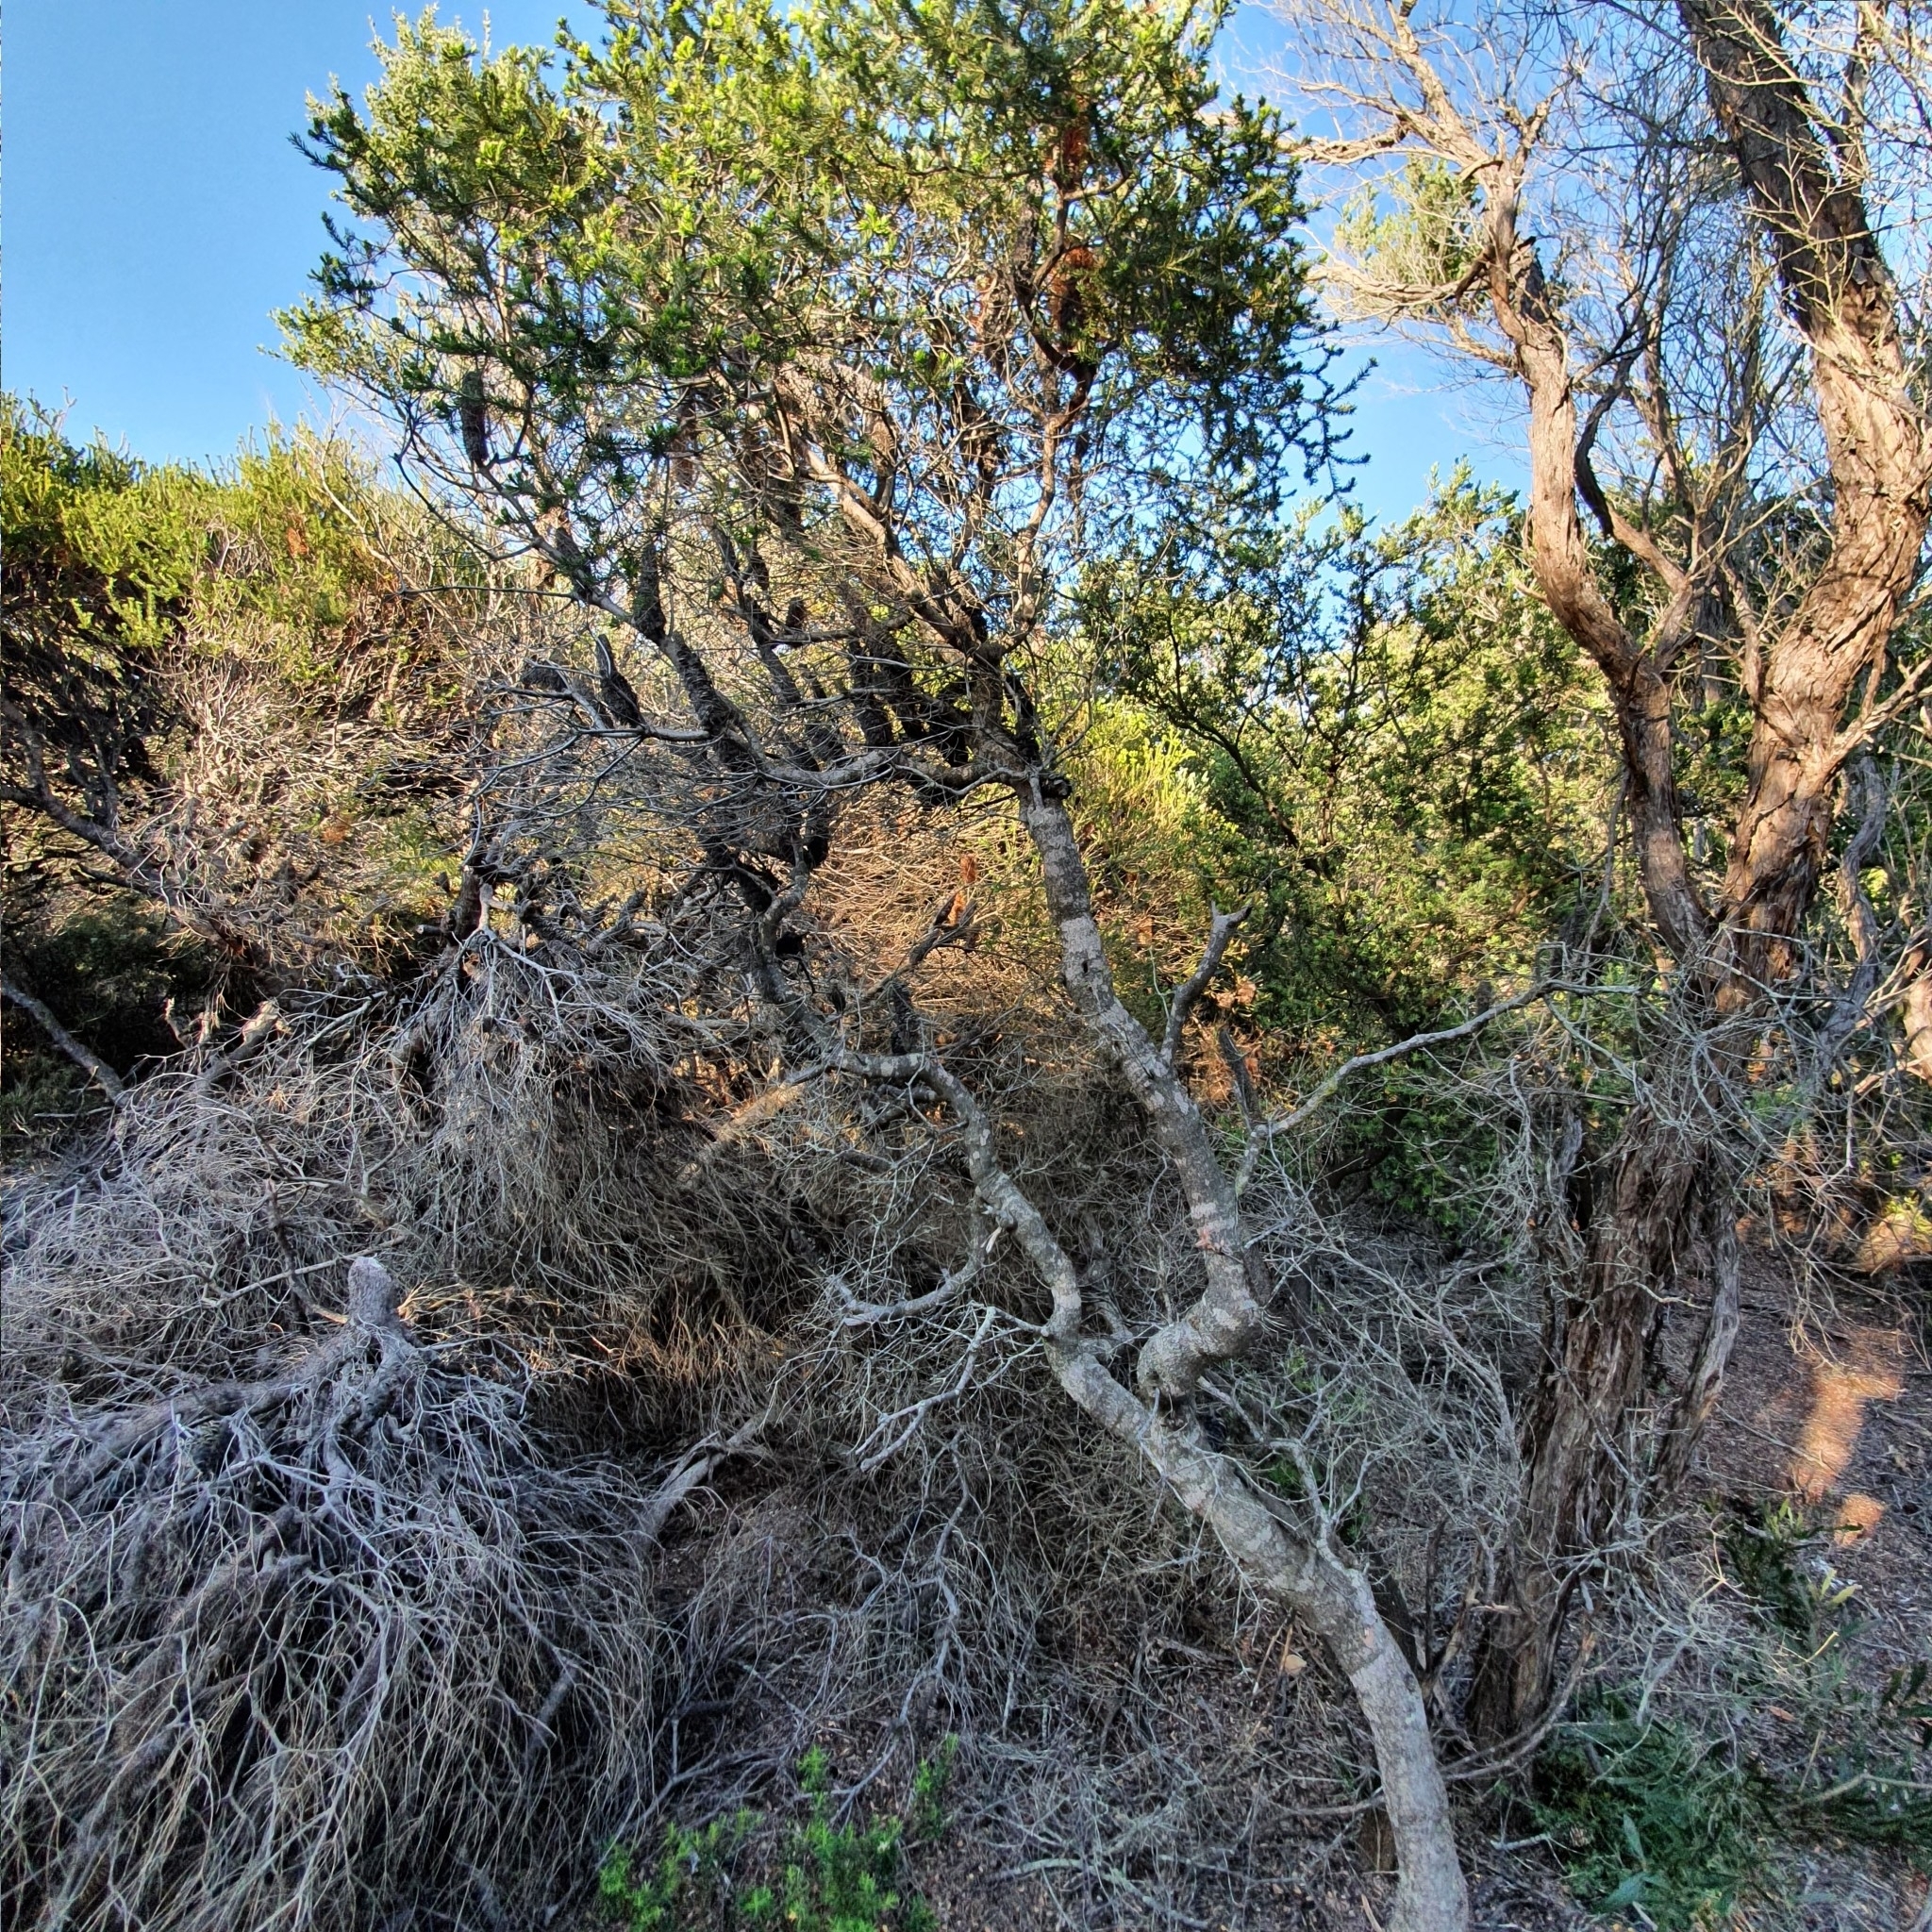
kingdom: Plantae
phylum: Tracheophyta
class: Magnoliopsida
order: Proteales
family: Proteaceae
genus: Banksia
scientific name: Banksia ericifolia
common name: Heath-leaf banksia
